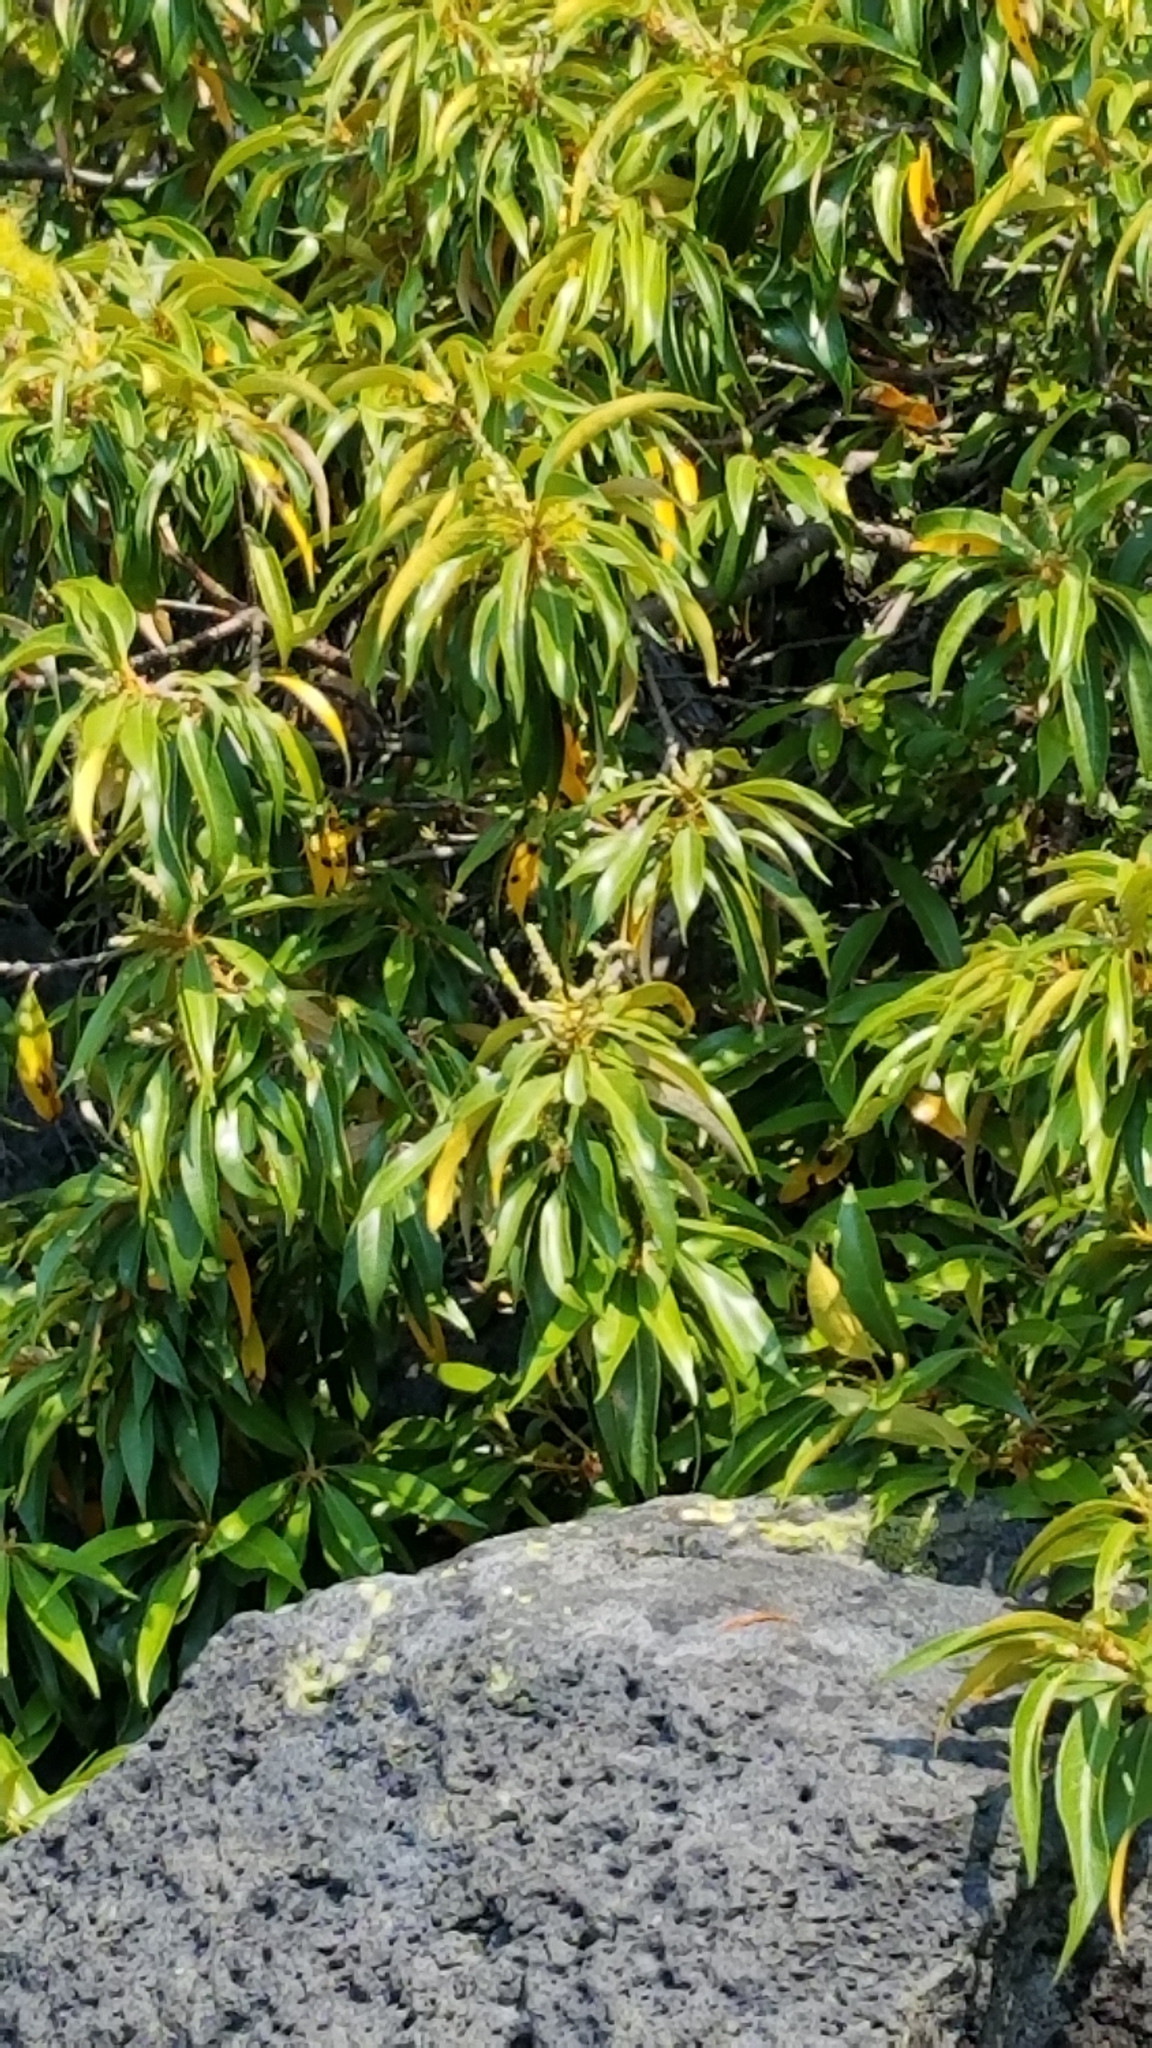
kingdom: Plantae
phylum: Tracheophyta
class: Magnoliopsida
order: Fagales
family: Fagaceae
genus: Chrysolepis
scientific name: Chrysolepis chrysophylla
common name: Giant chinquapin
